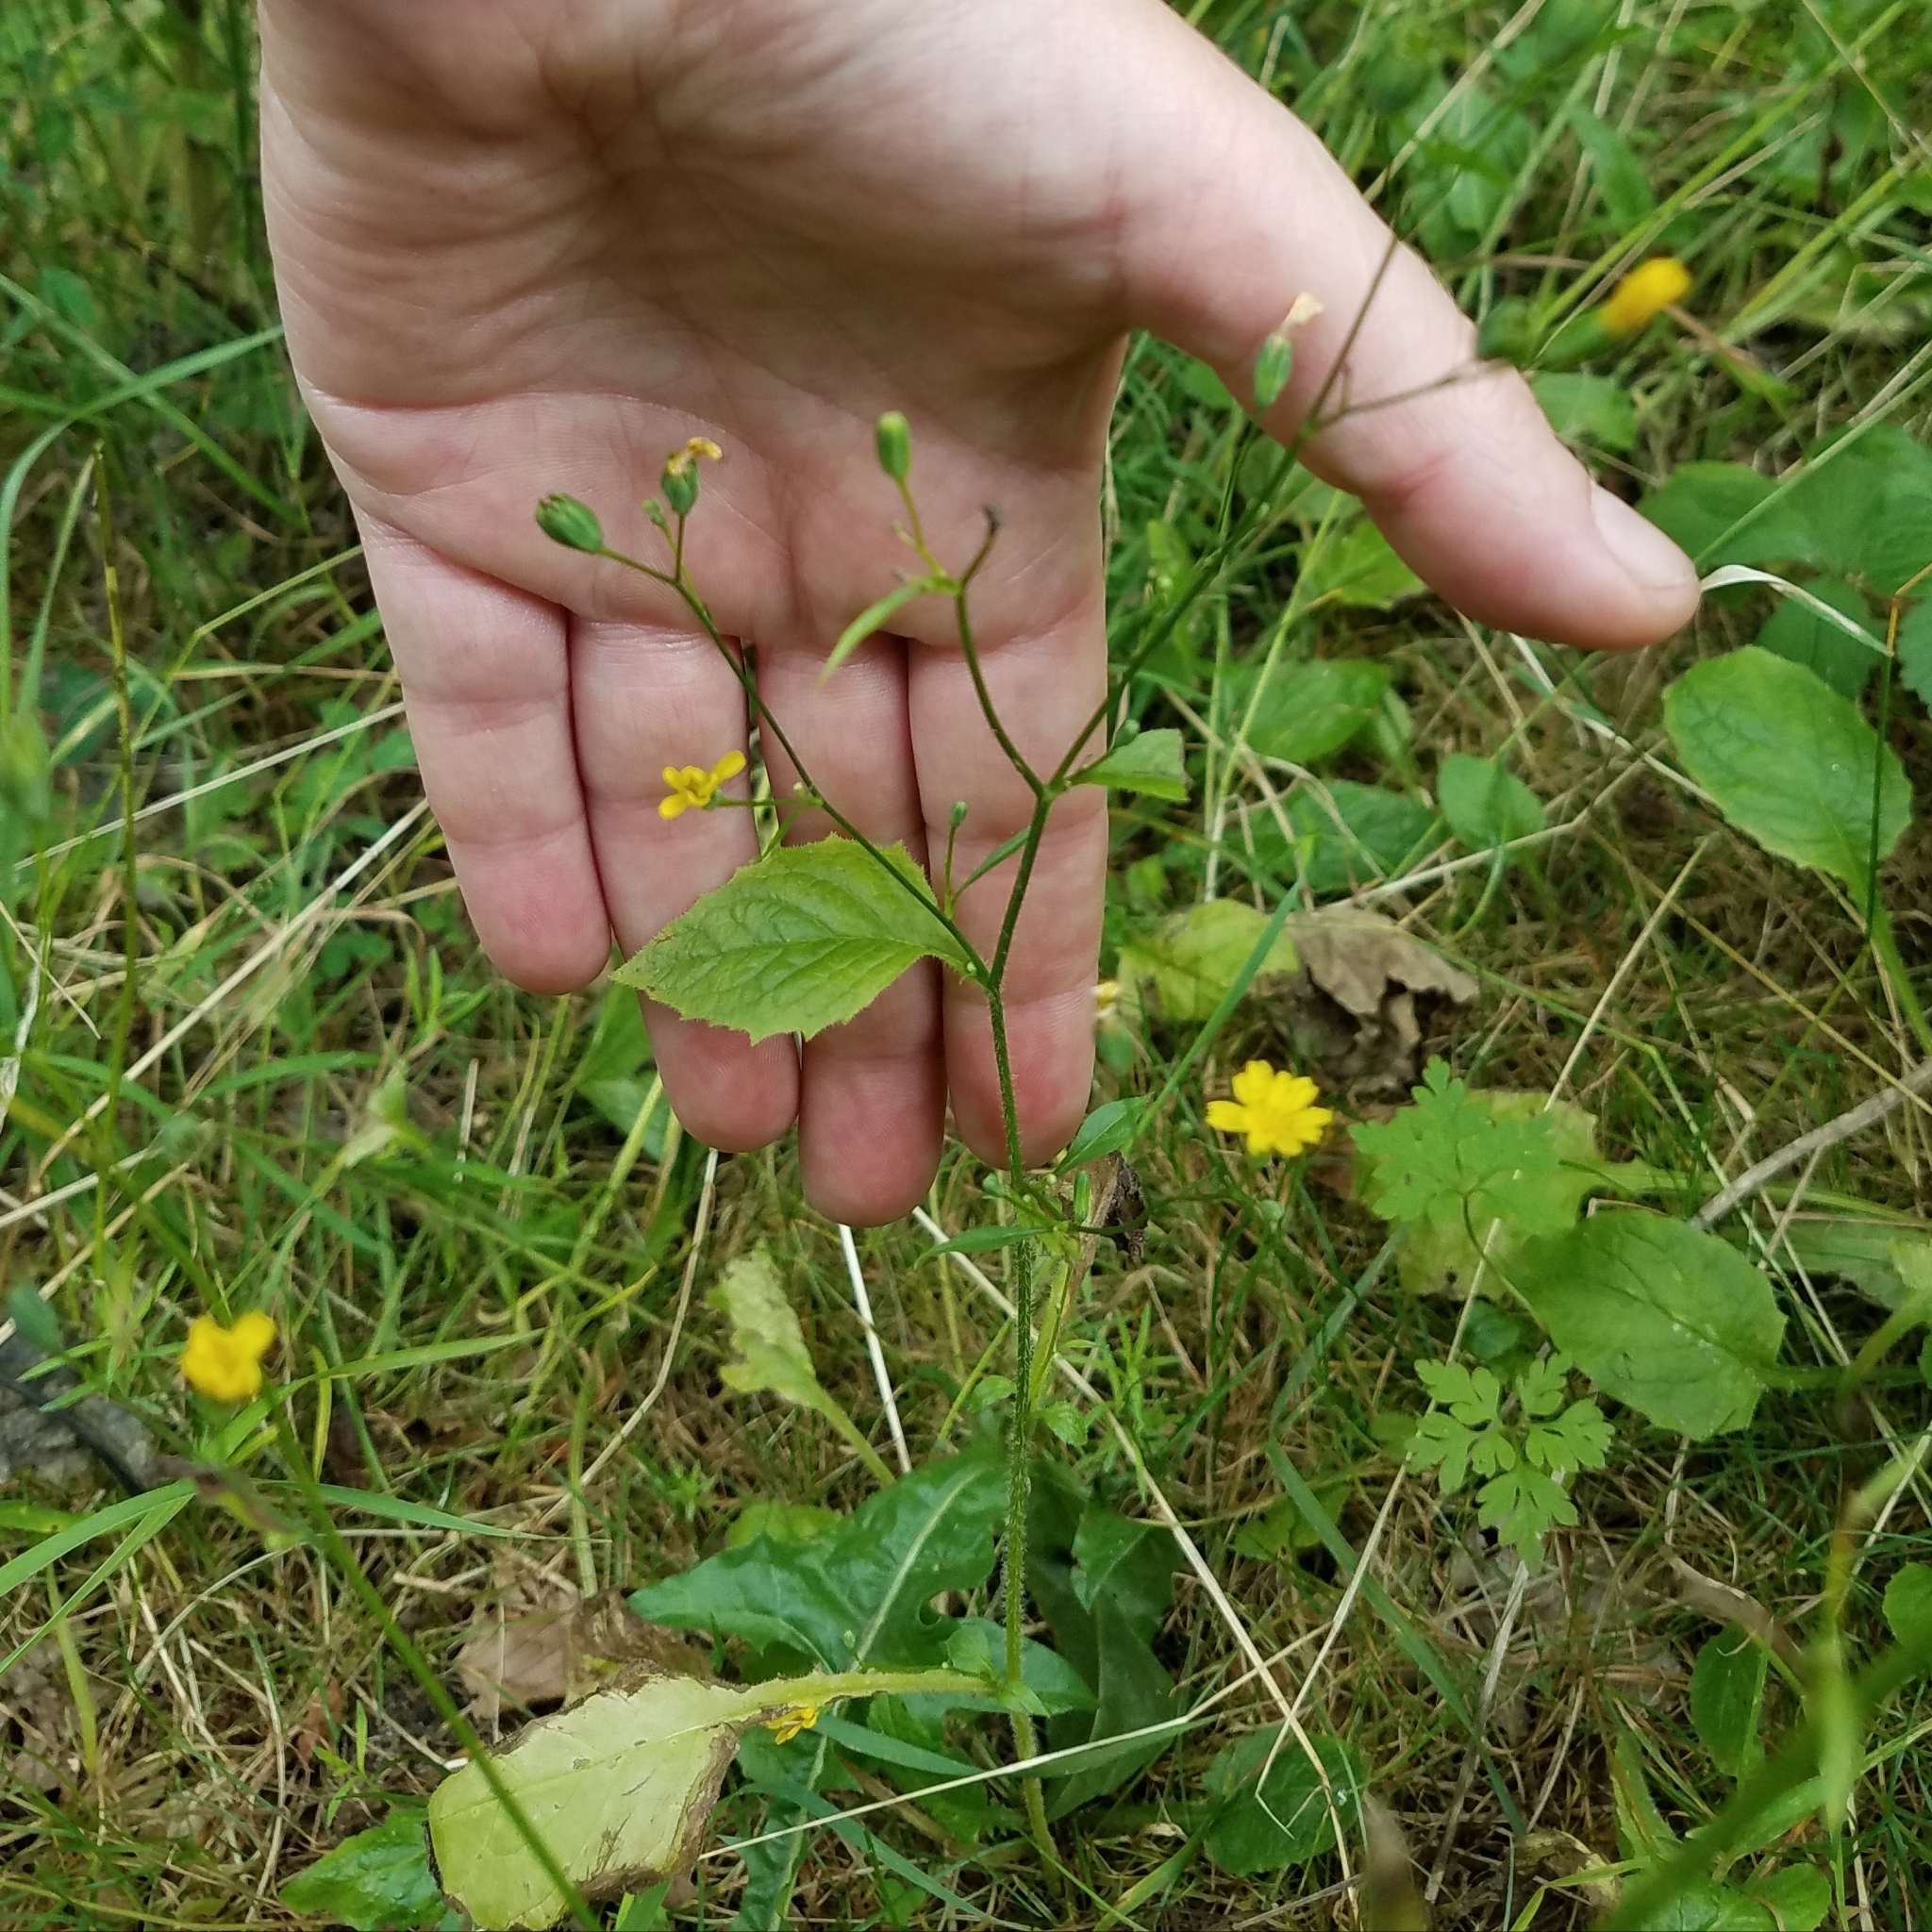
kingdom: Plantae
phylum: Tracheophyta
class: Magnoliopsida
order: Asterales
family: Asteraceae
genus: Lapsana
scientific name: Lapsana communis
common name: Nipplewort
